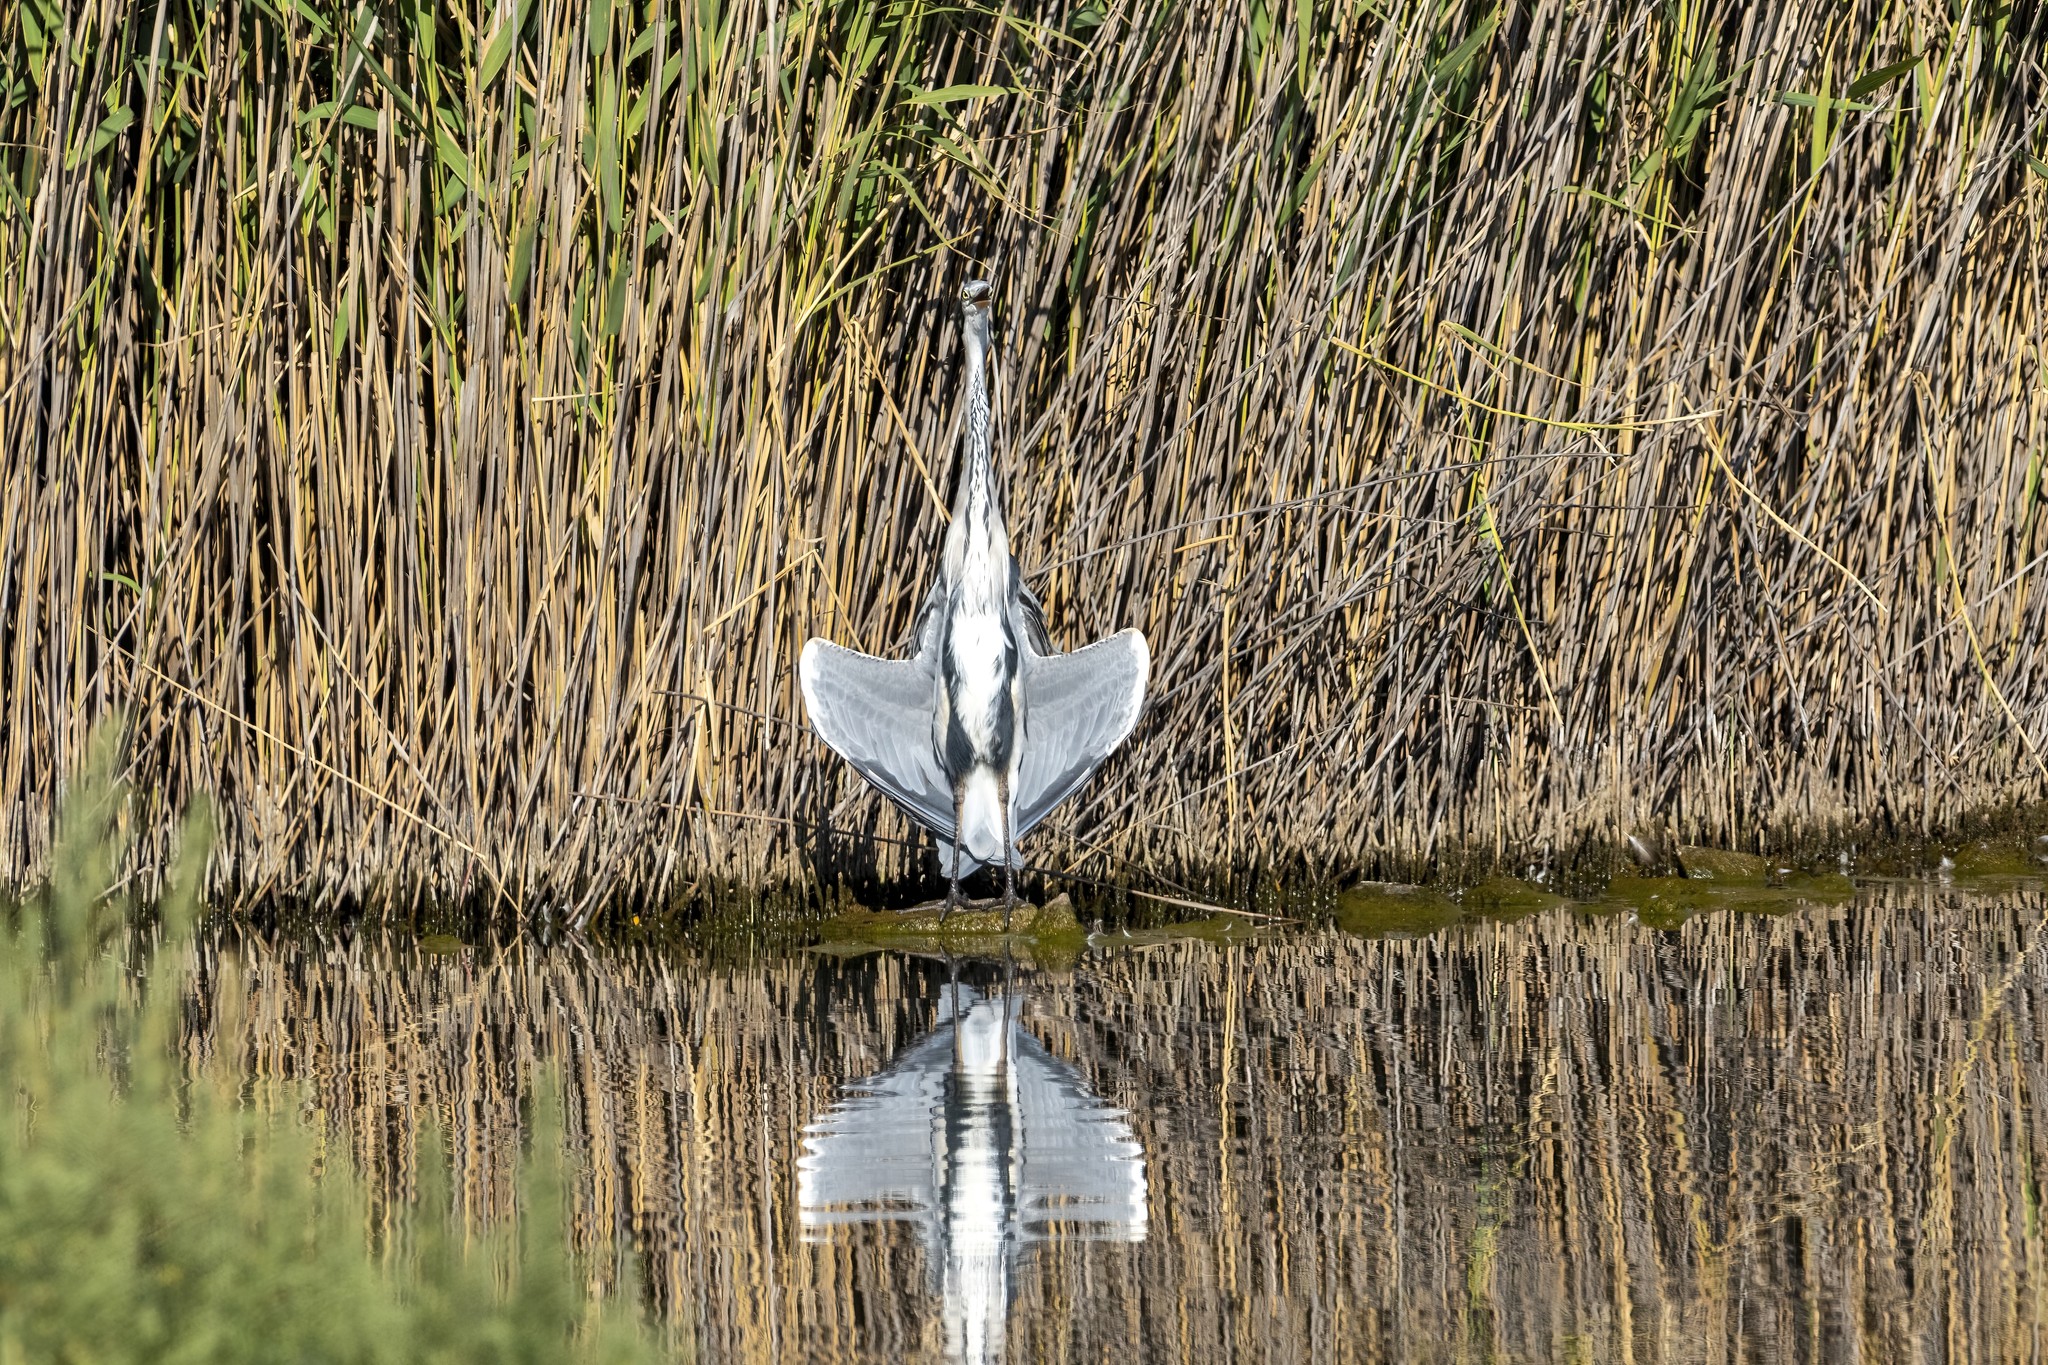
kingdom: Animalia
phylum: Chordata
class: Aves
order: Pelecaniformes
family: Ardeidae
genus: Ardea
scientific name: Ardea cinerea
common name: Grey heron
